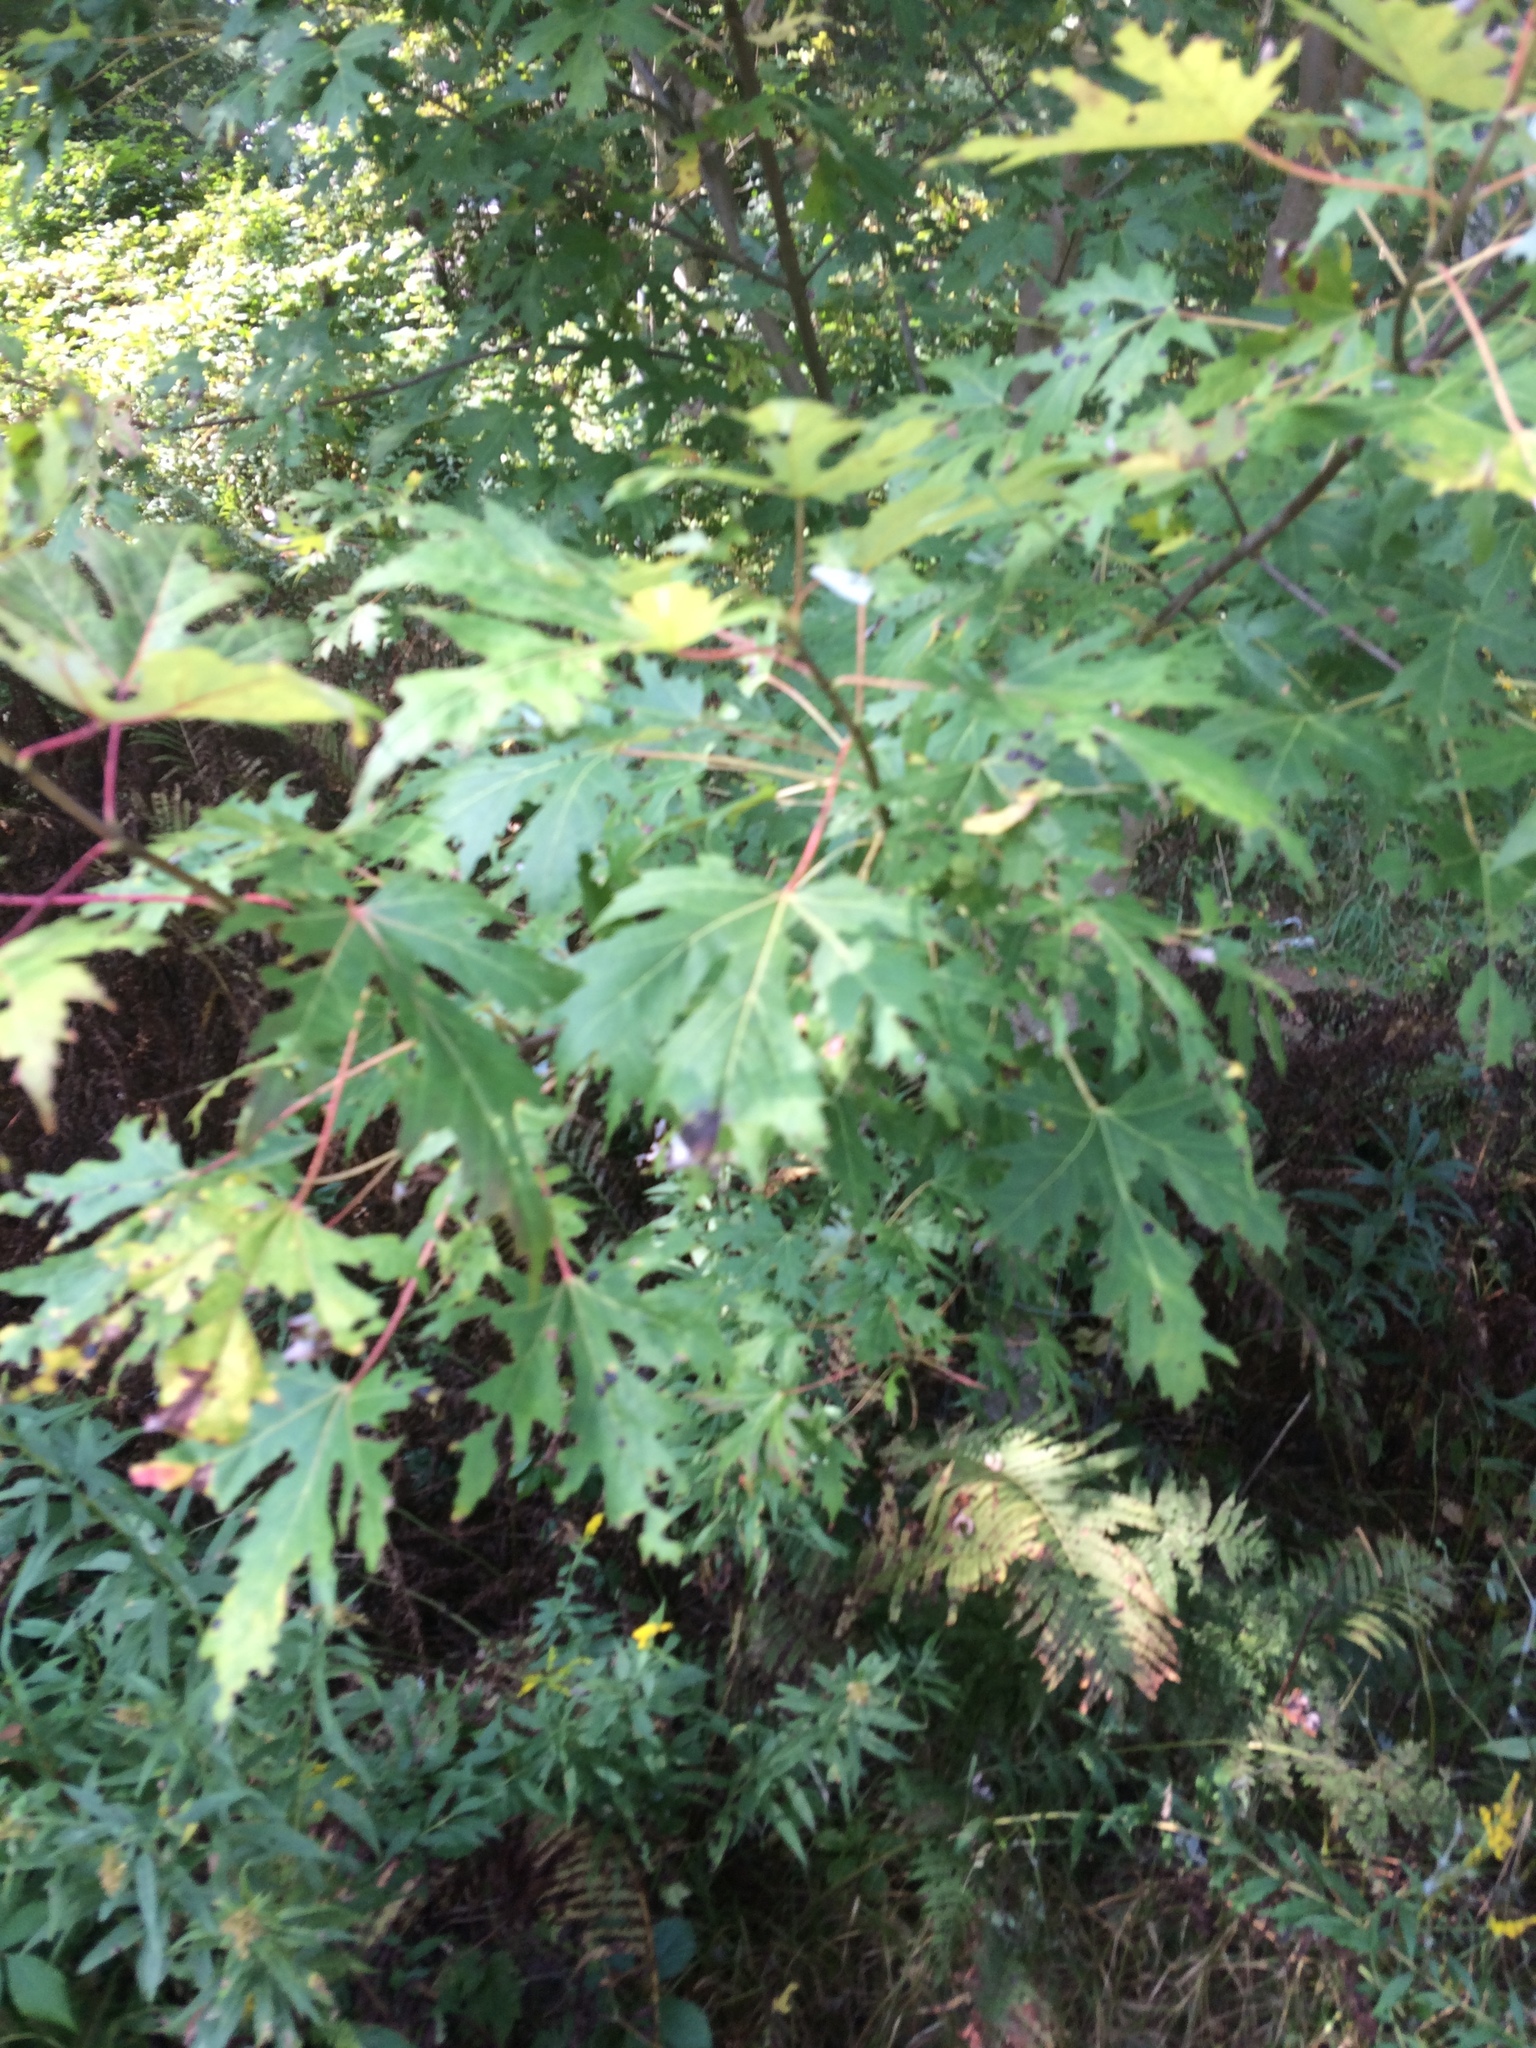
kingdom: Plantae
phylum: Tracheophyta
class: Magnoliopsida
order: Sapindales
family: Sapindaceae
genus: Acer
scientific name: Acer saccharinum
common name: Silver maple
